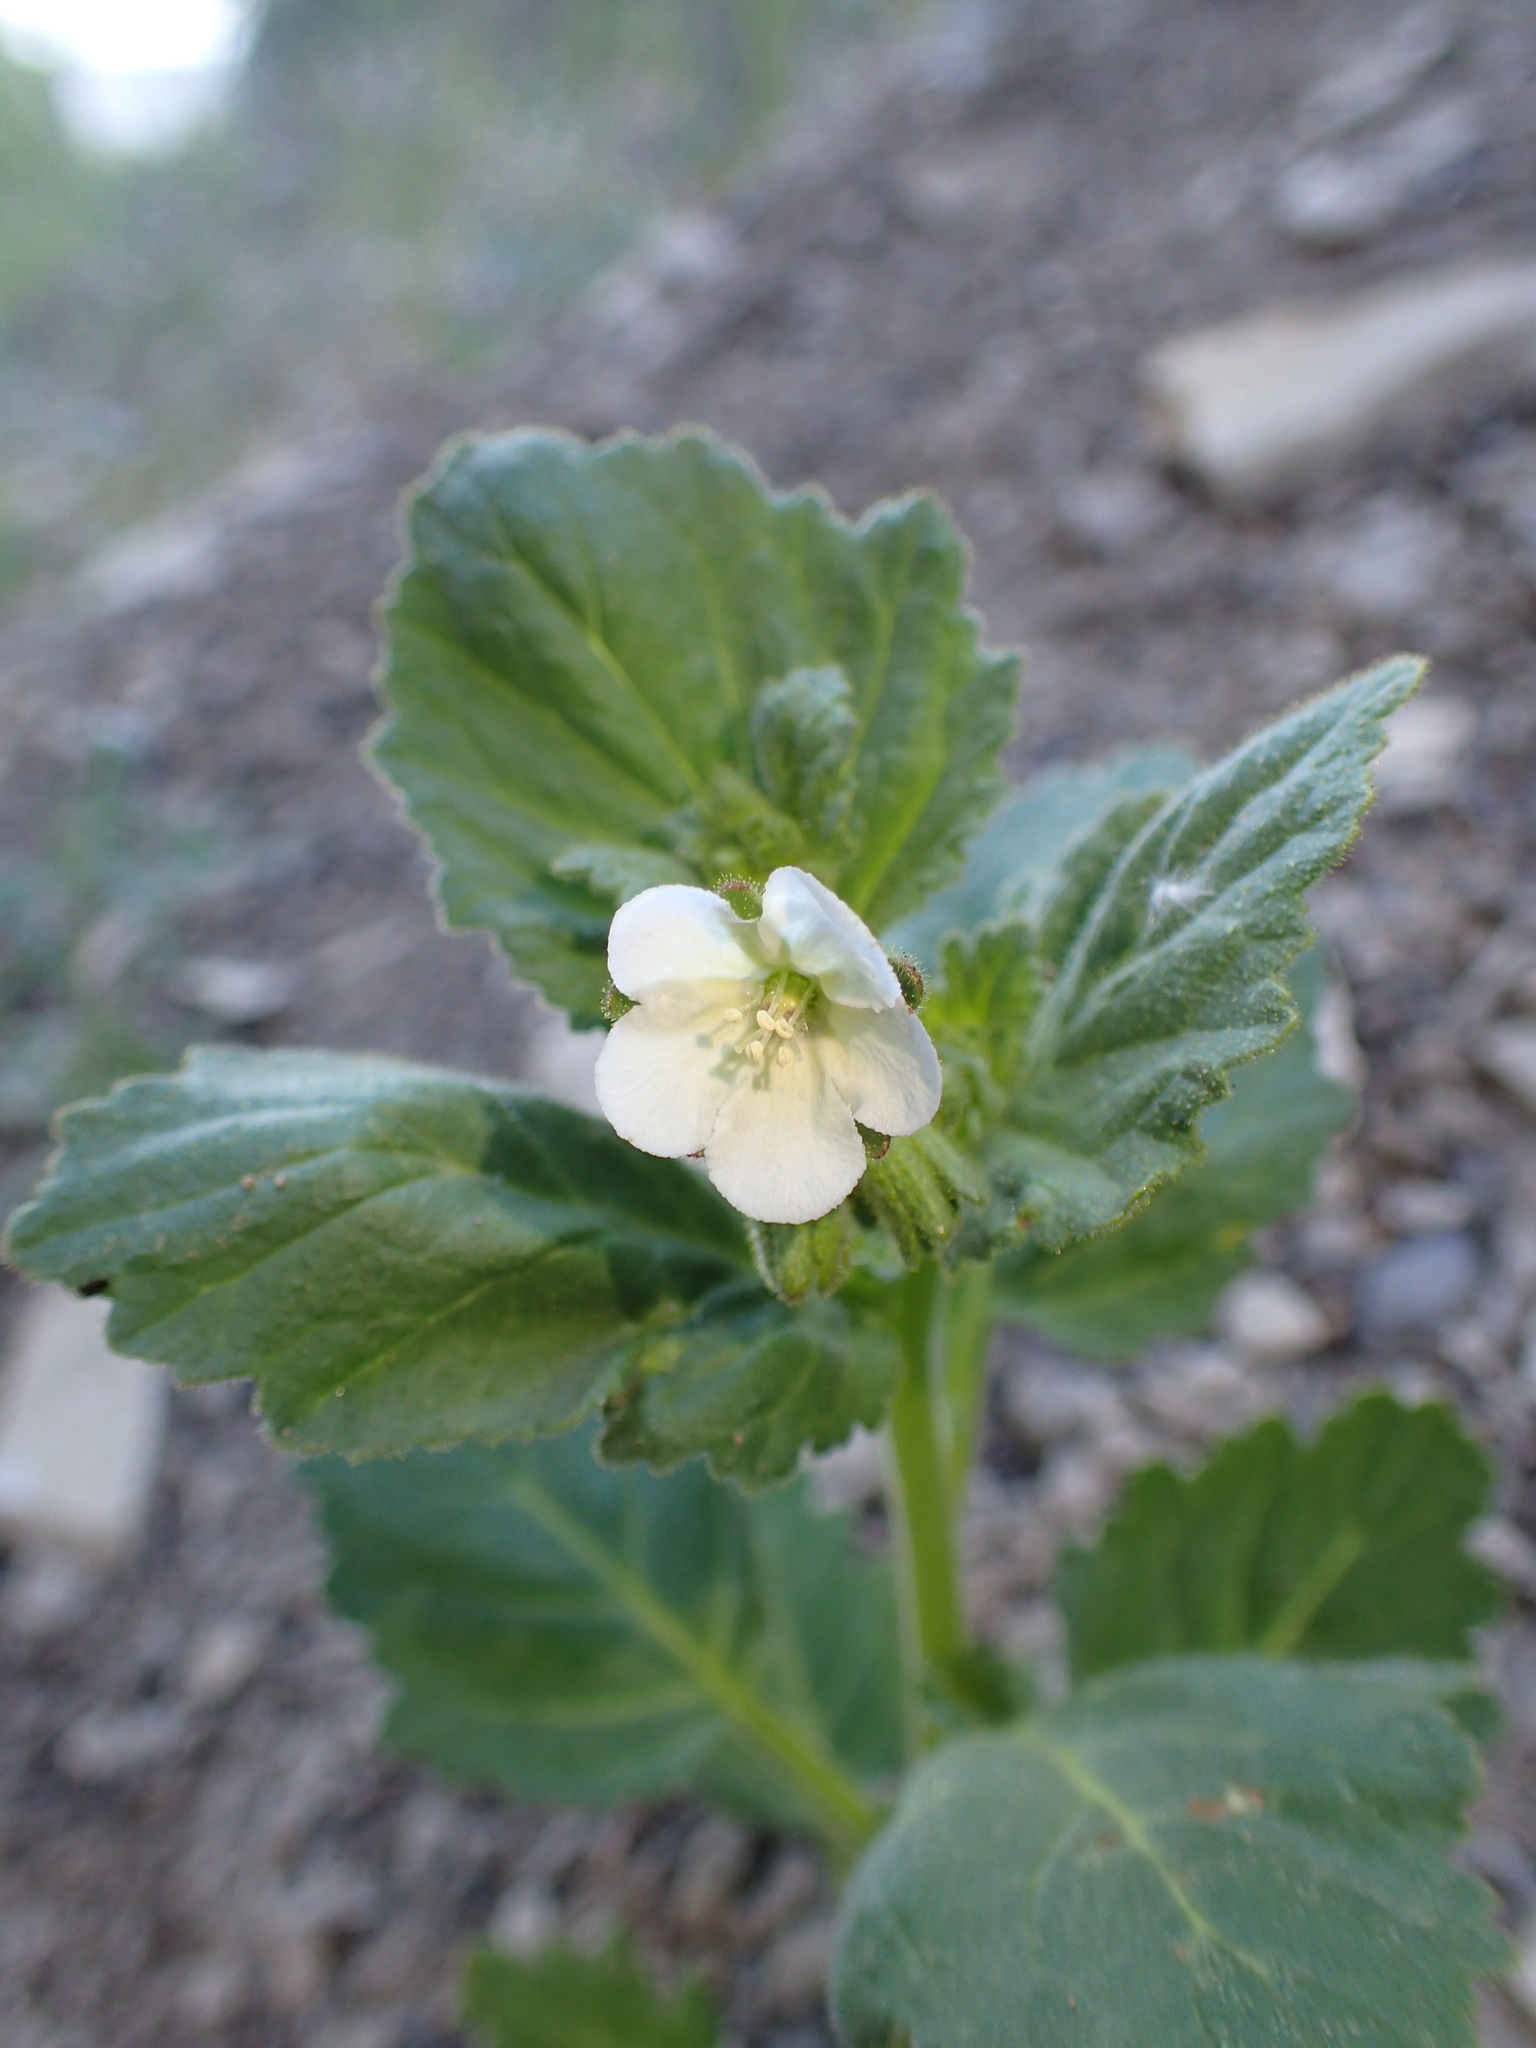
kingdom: Plantae
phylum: Tracheophyta
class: Magnoliopsida
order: Boraginales
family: Hydrophyllaceae
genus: Phacelia
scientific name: Phacelia viscida
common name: Sticky phacelia
